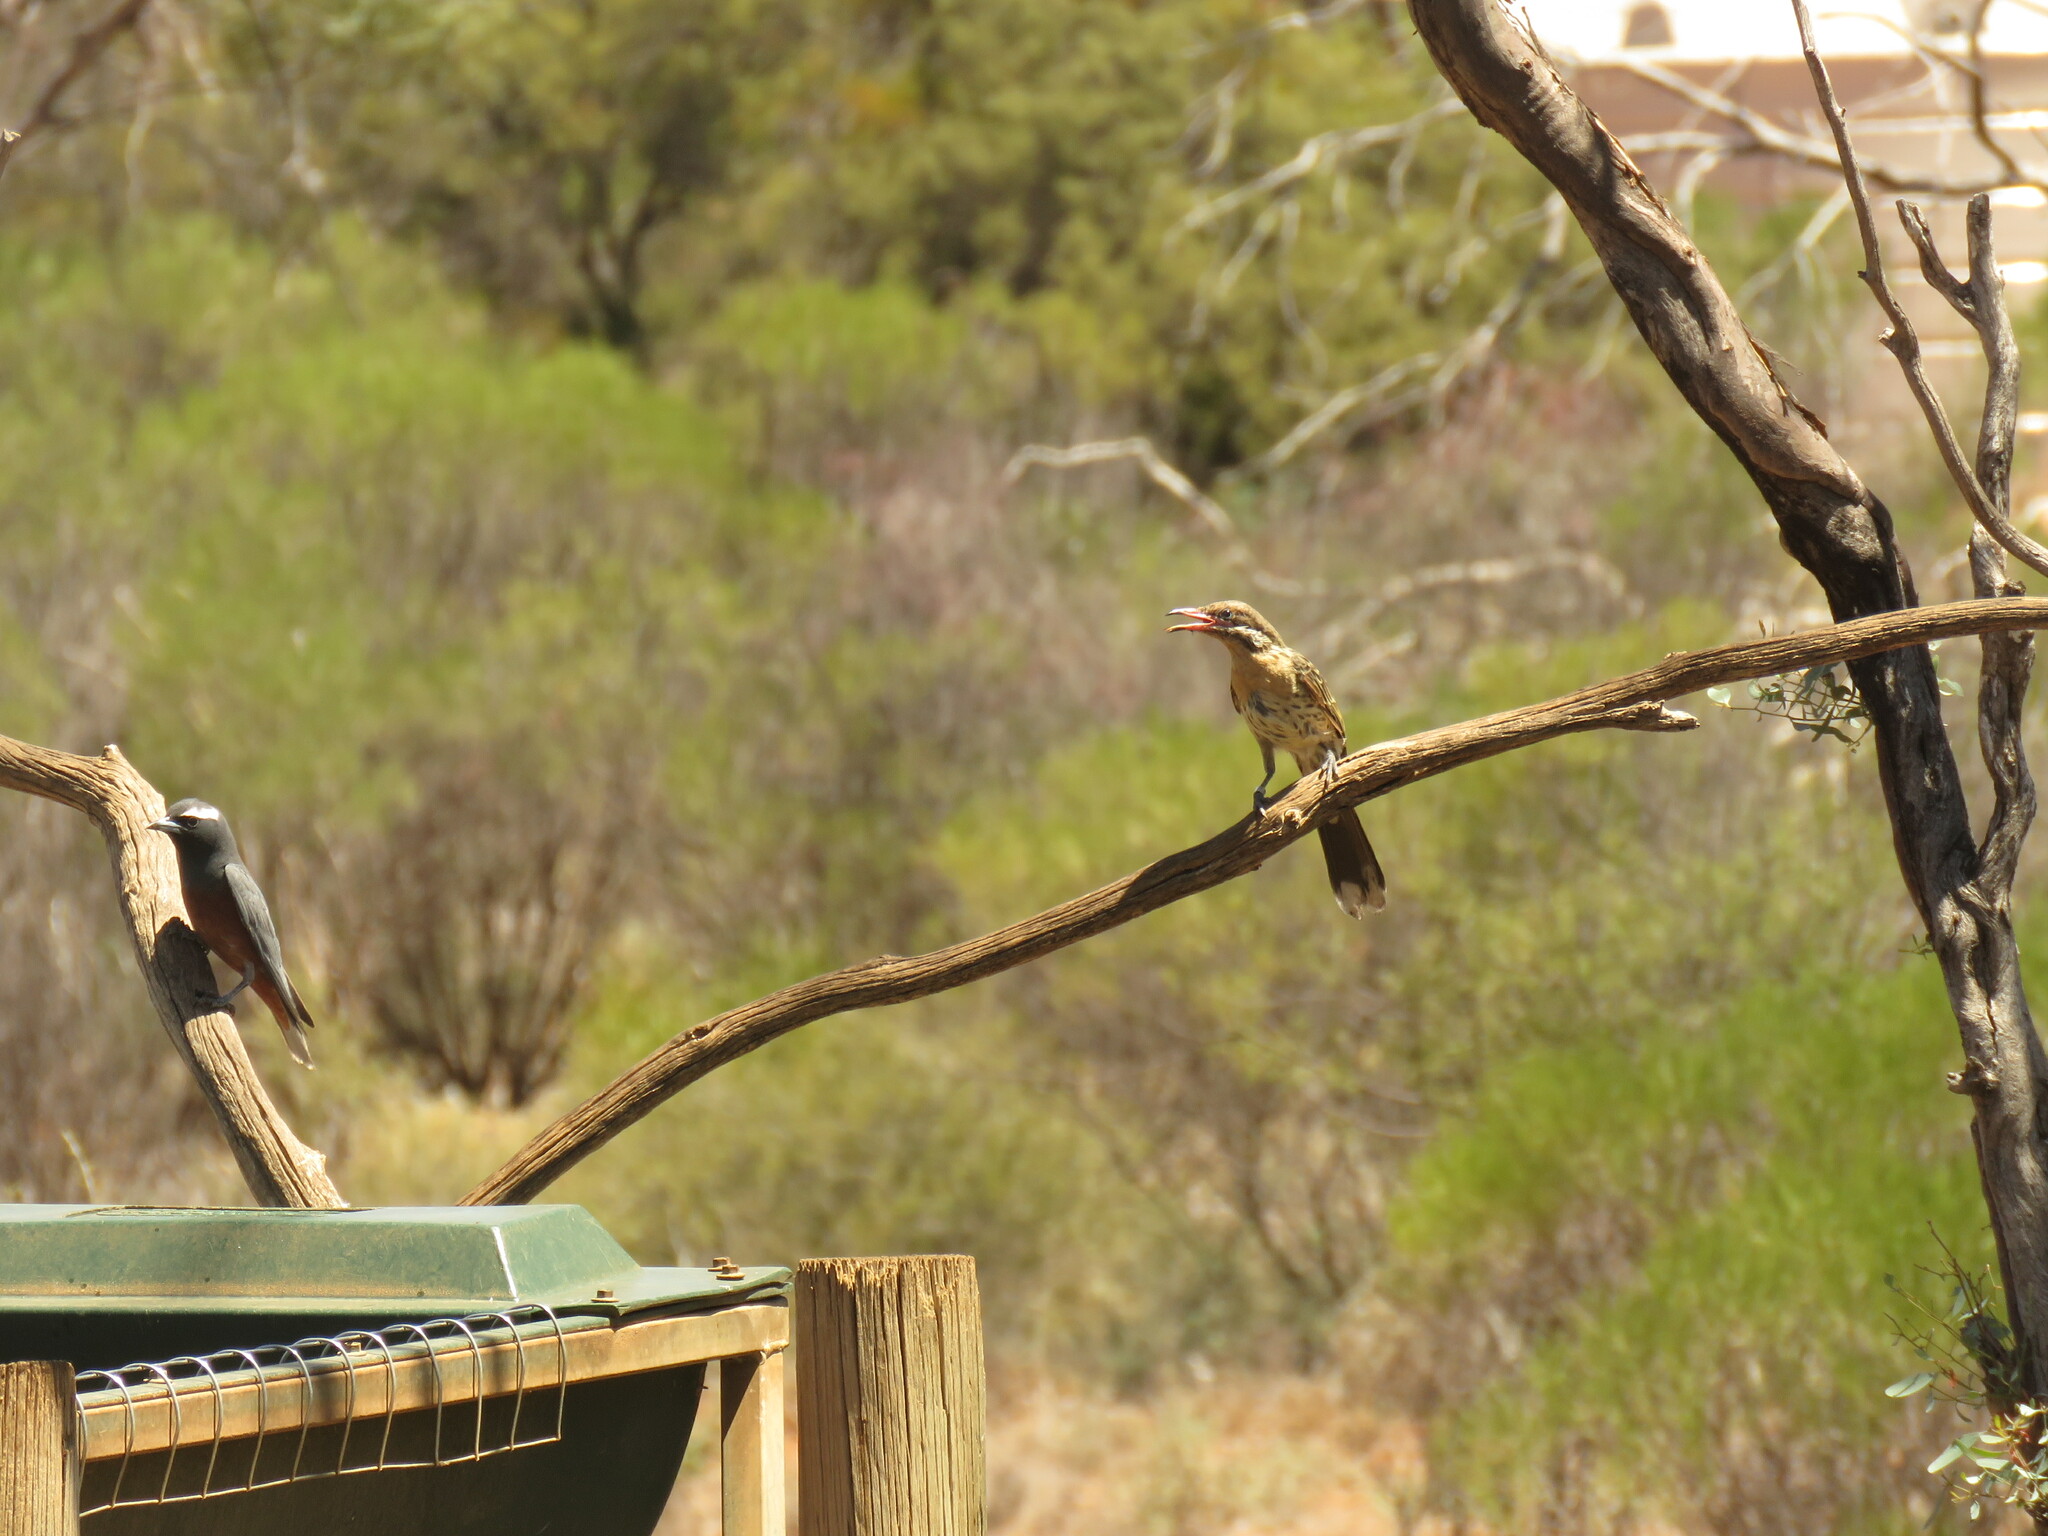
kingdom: Animalia
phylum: Chordata
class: Aves
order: Passeriformes
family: Meliphagidae
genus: Acanthagenys
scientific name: Acanthagenys rufogularis
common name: Spiny-cheeked honeyeater
